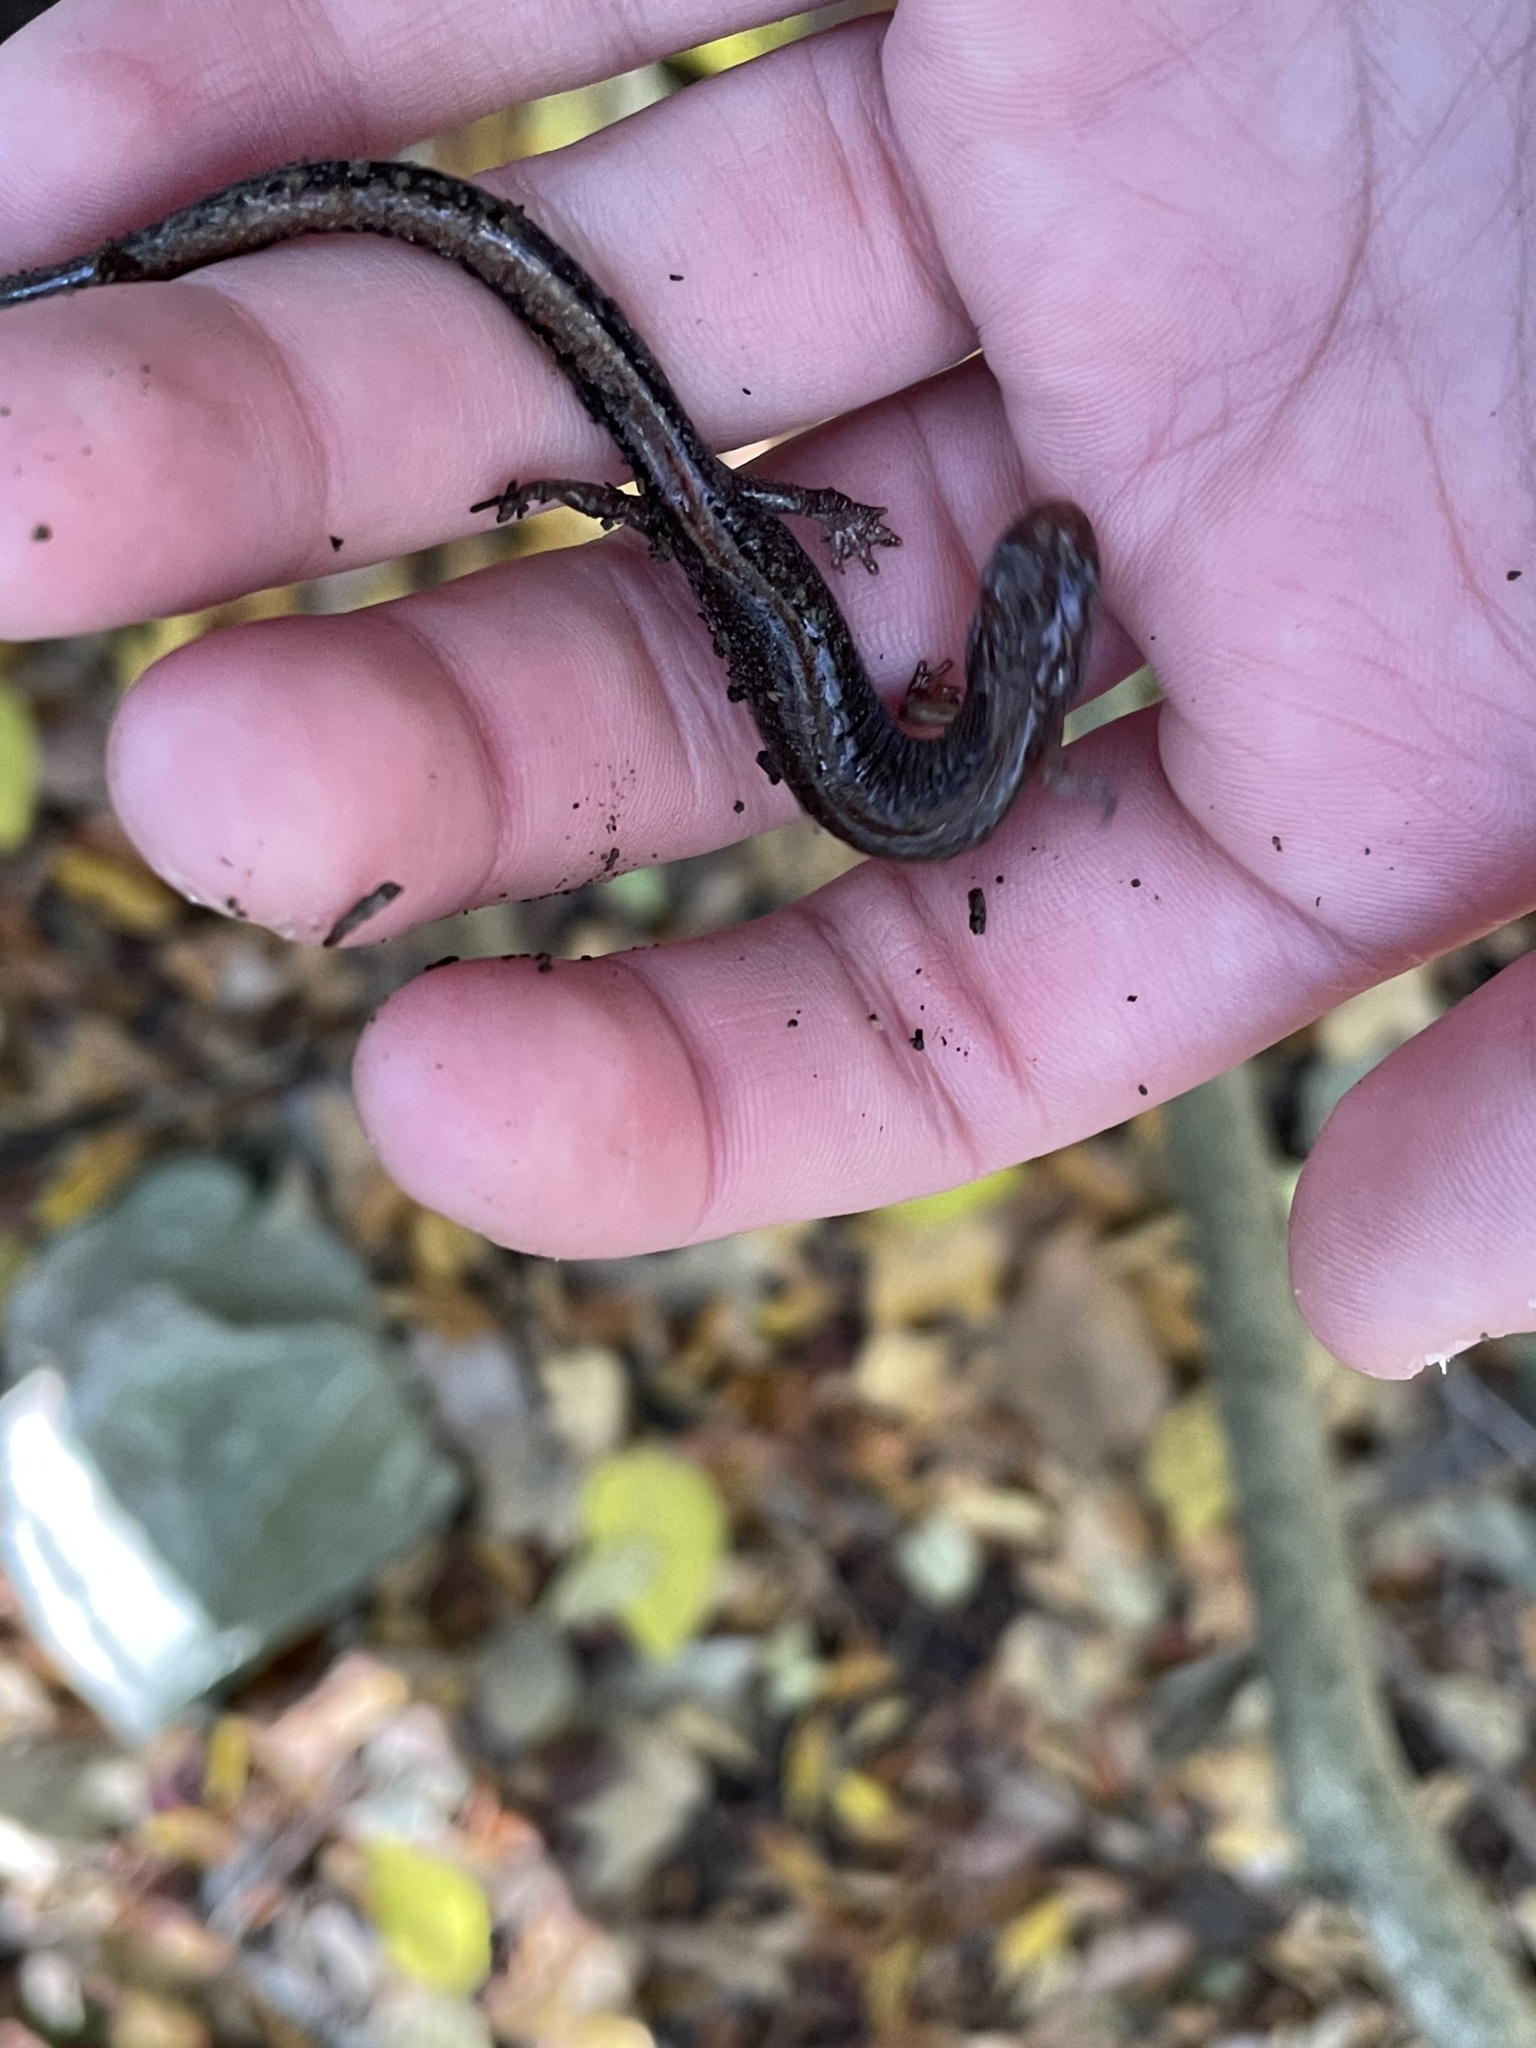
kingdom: Animalia
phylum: Chordata
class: Amphibia
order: Caudata
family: Plethodontidae
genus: Plethodon
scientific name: Plethodon dorsalis
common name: Northern zigzag salamander
